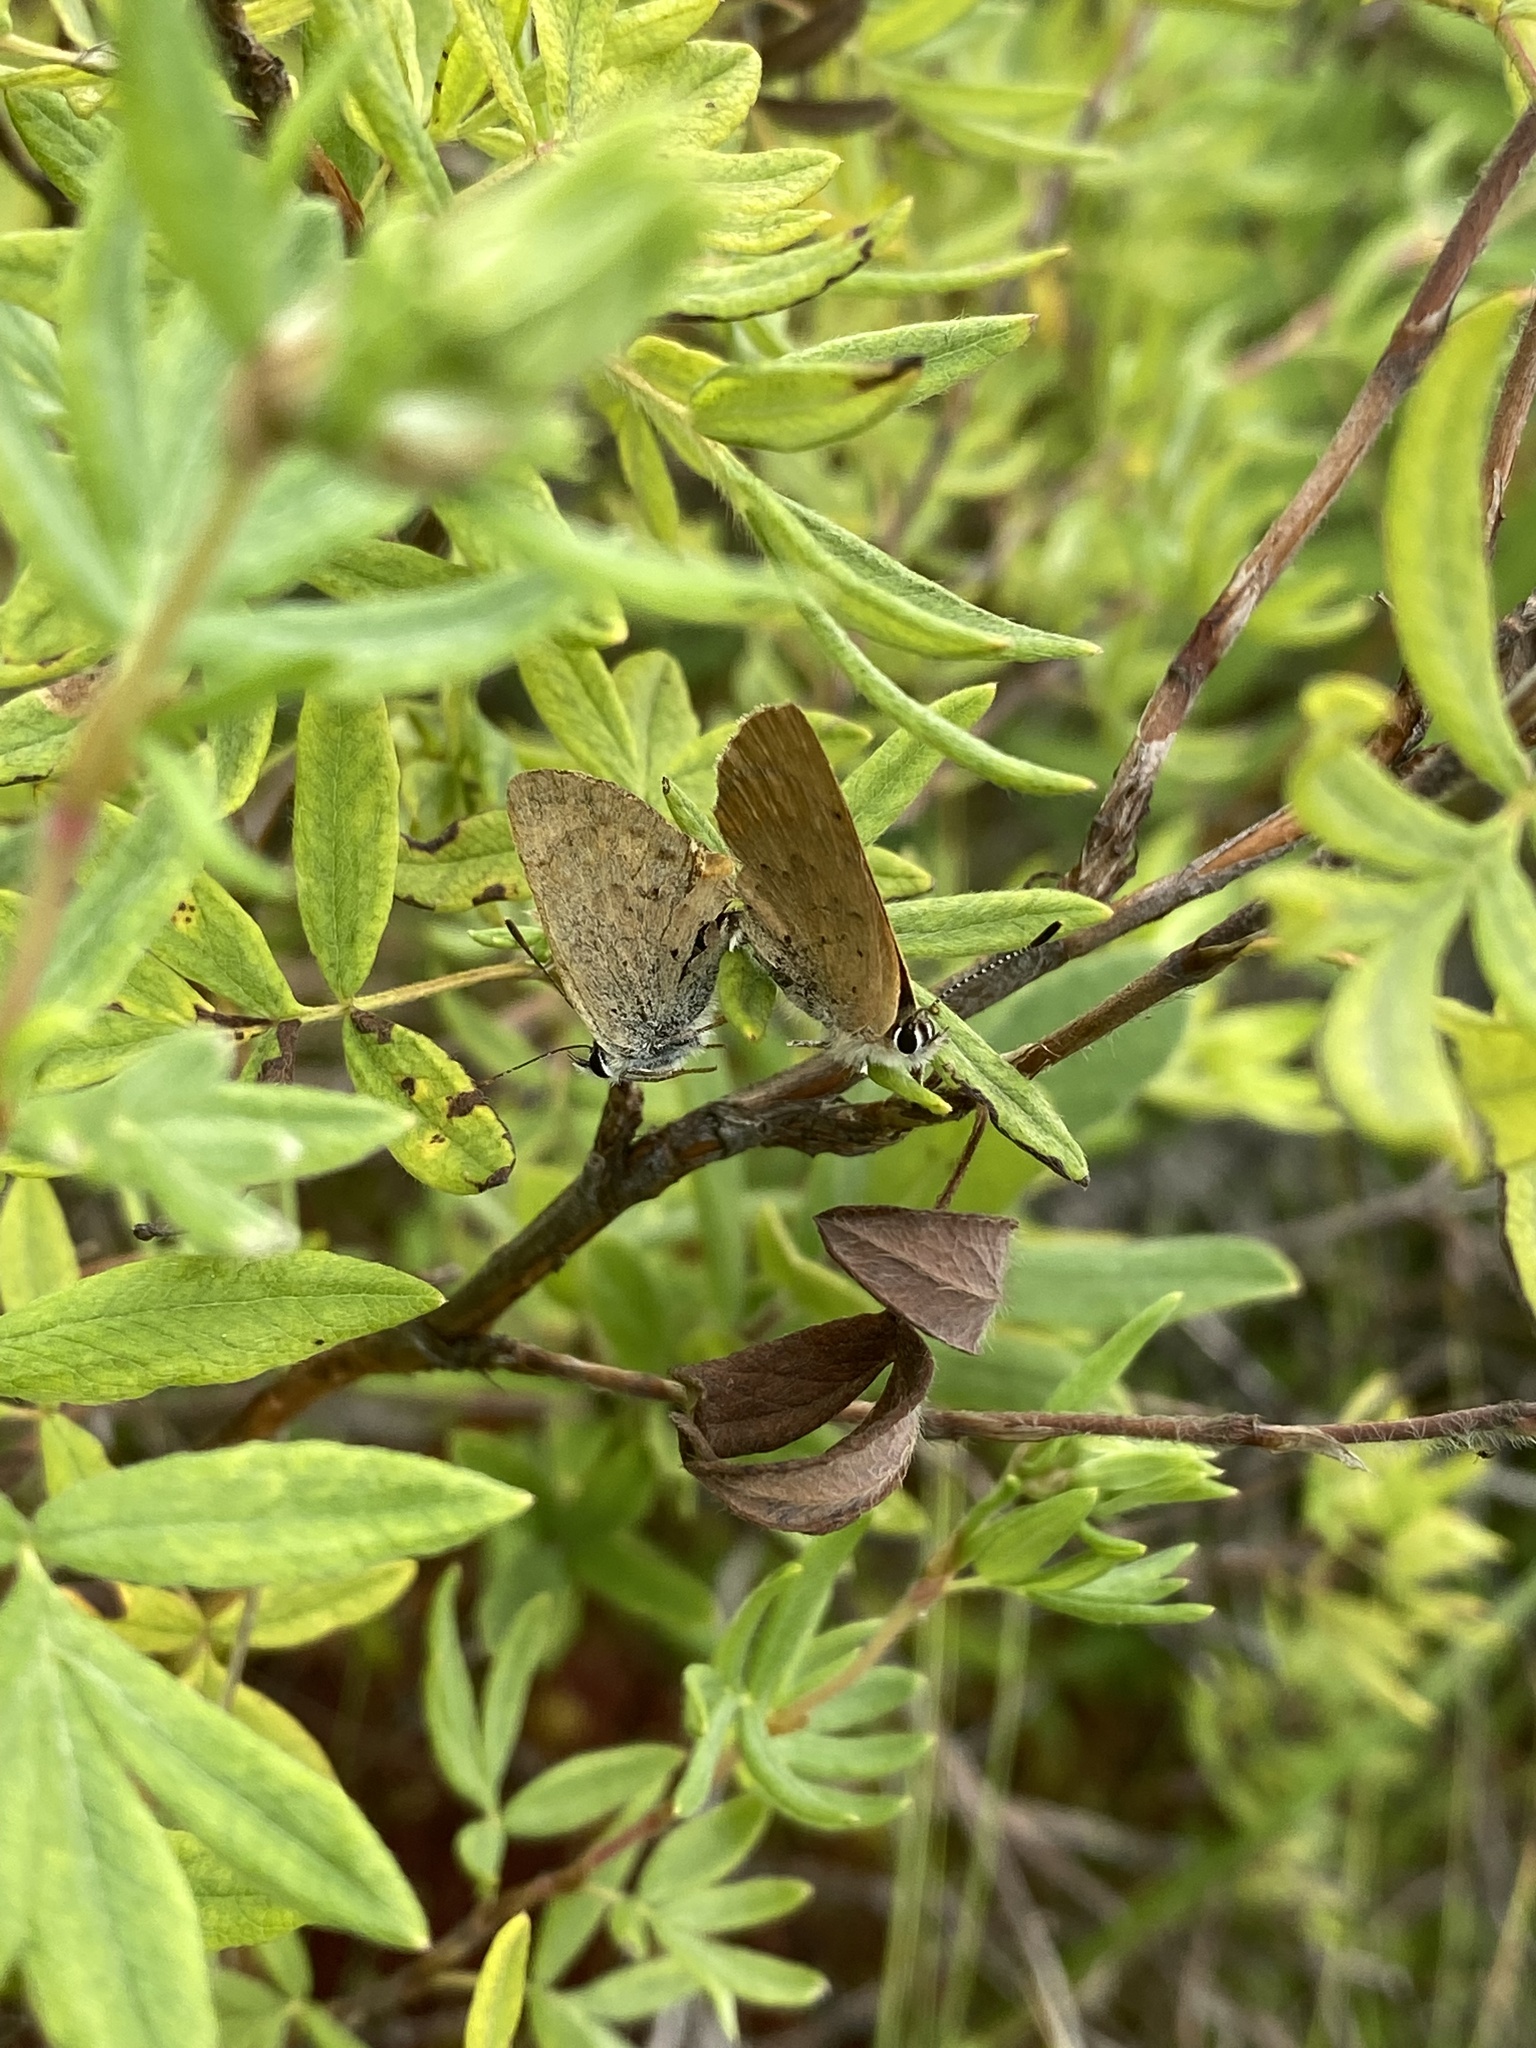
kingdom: Animalia
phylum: Arthropoda
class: Insecta
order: Lepidoptera
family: Lycaenidae
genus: Tharsalea
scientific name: Tharsalea dorcas
